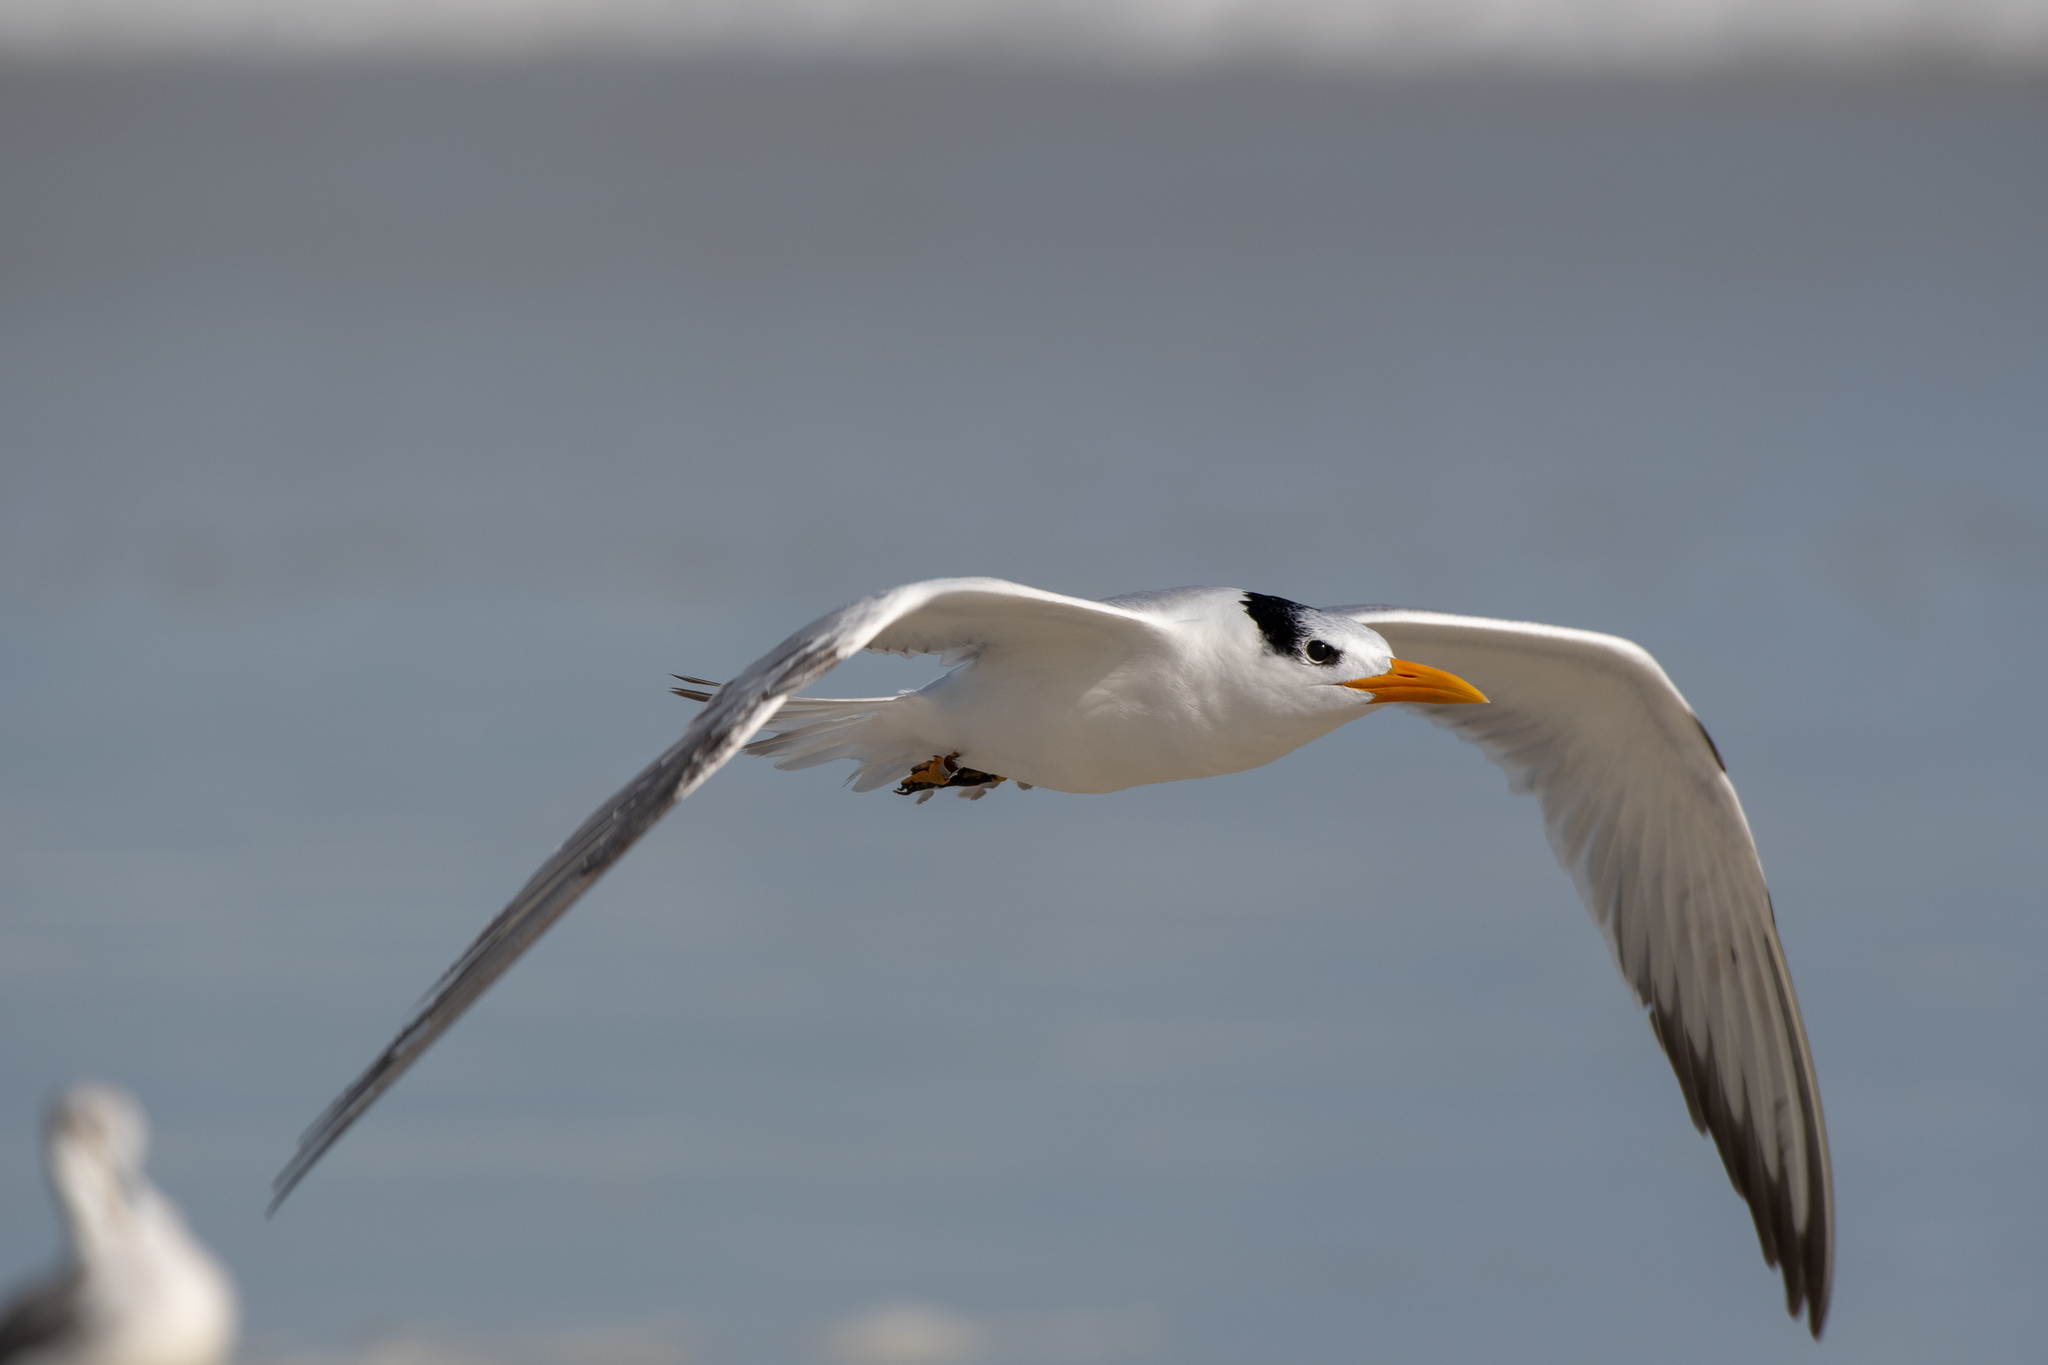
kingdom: Animalia
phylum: Chordata
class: Aves
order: Charadriiformes
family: Laridae
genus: Thalasseus
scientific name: Thalasseus maximus
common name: Royal tern
